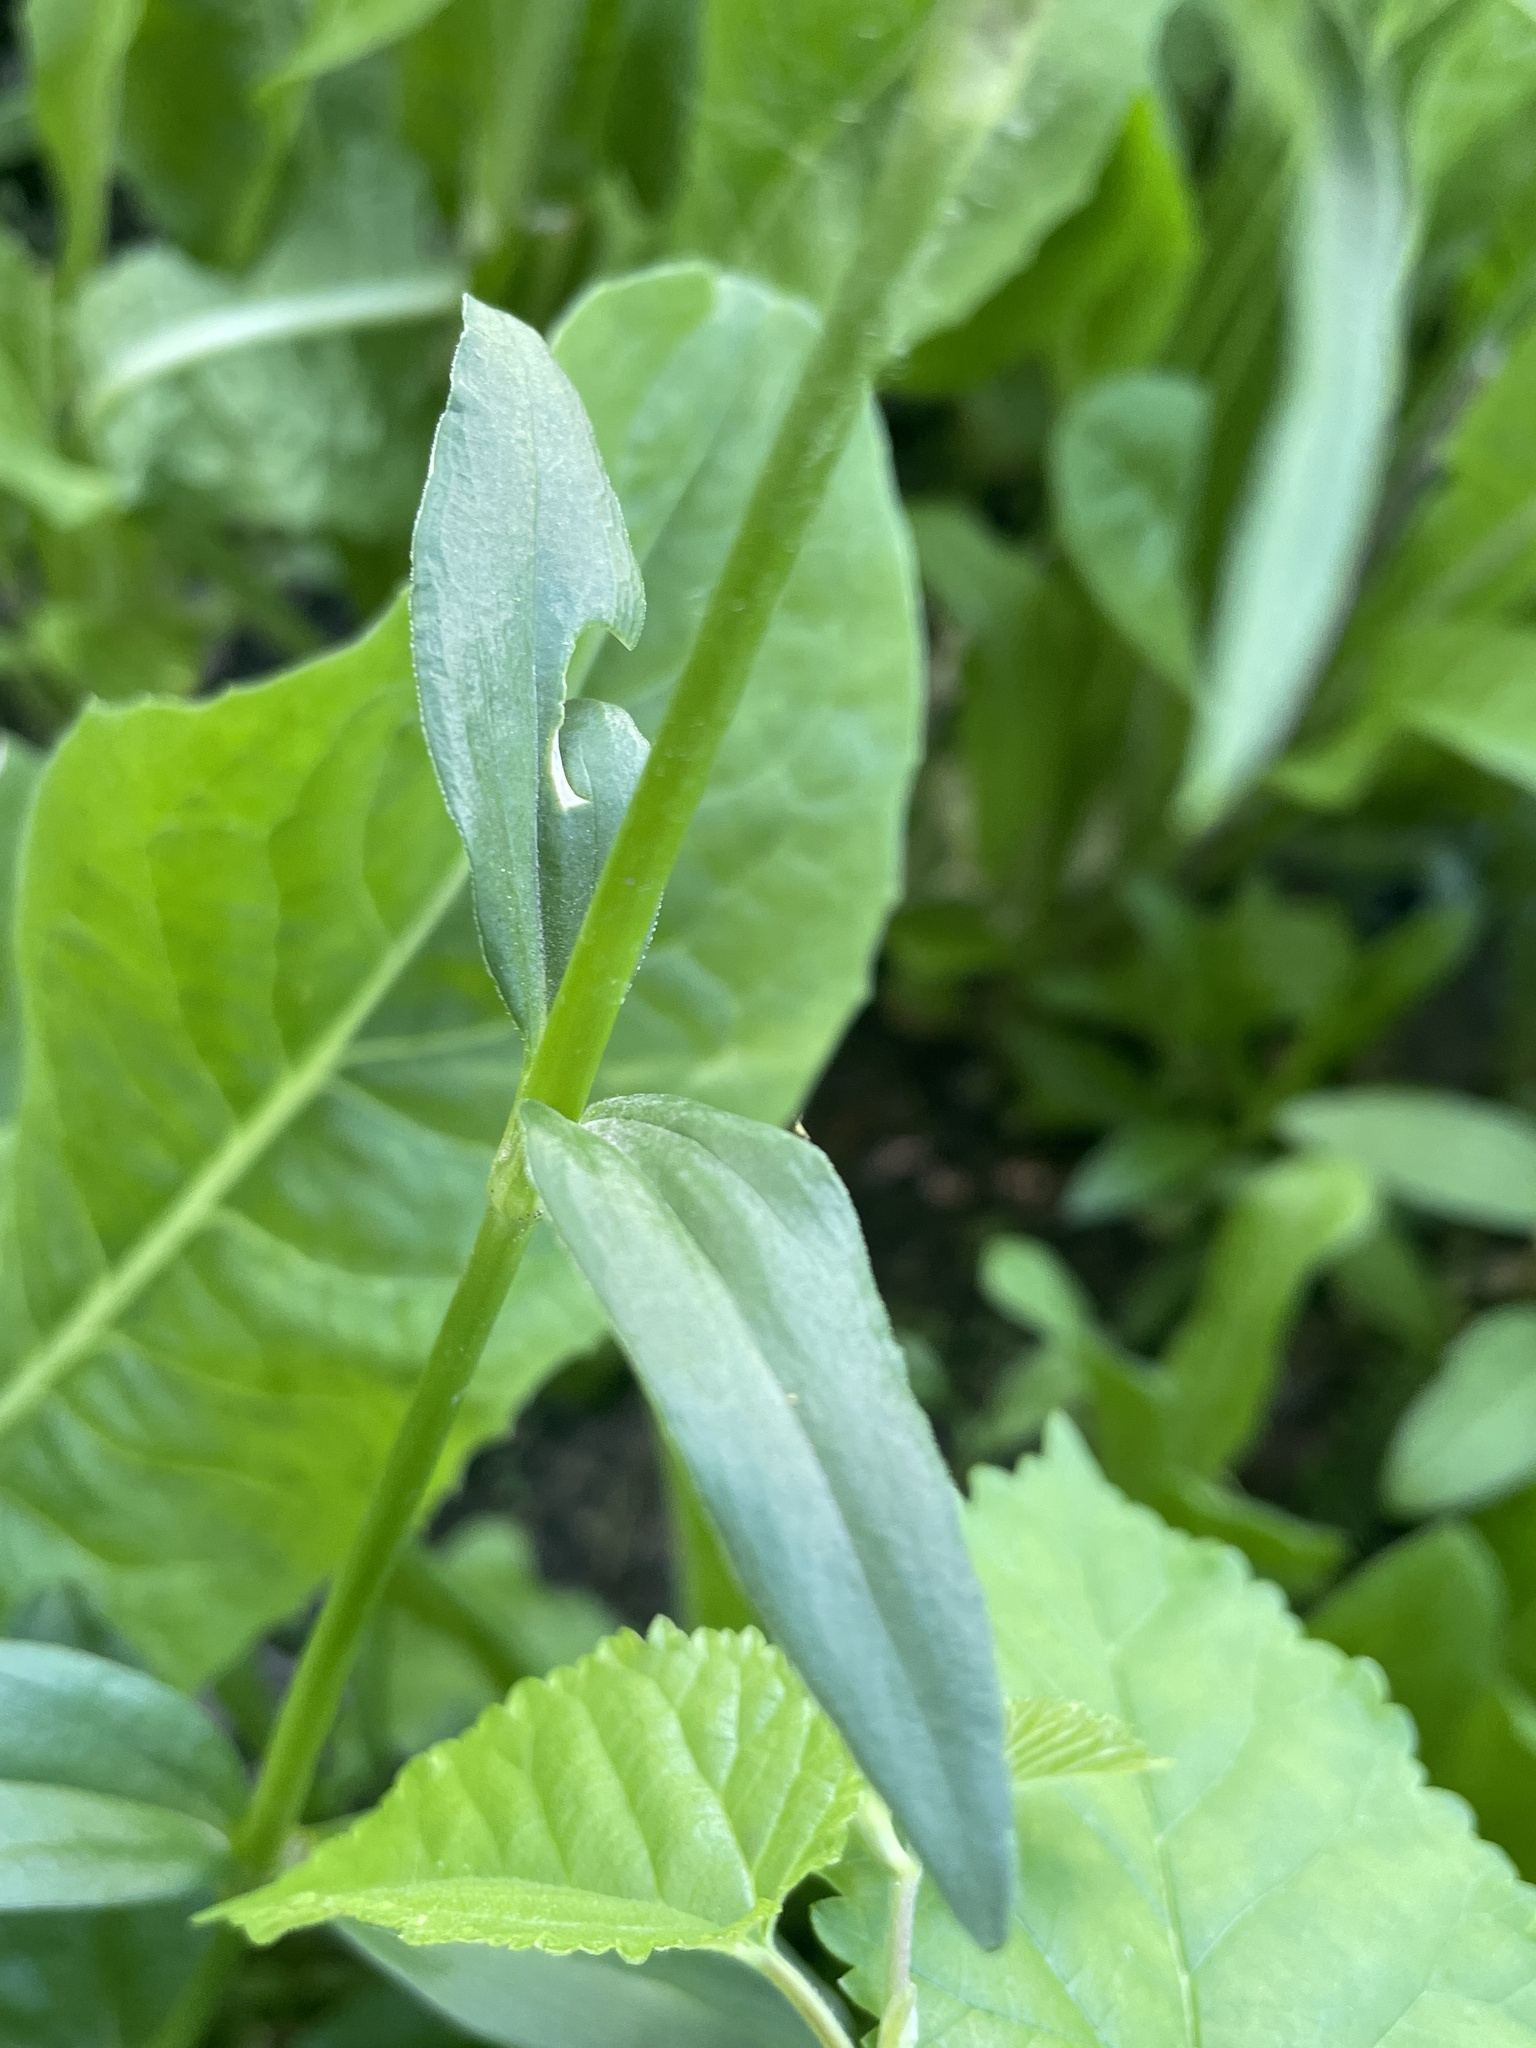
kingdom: Plantae
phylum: Tracheophyta
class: Magnoliopsida
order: Caryophyllales
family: Caryophyllaceae
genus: Dianthus
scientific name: Dianthus barbatus
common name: Sweet-william
